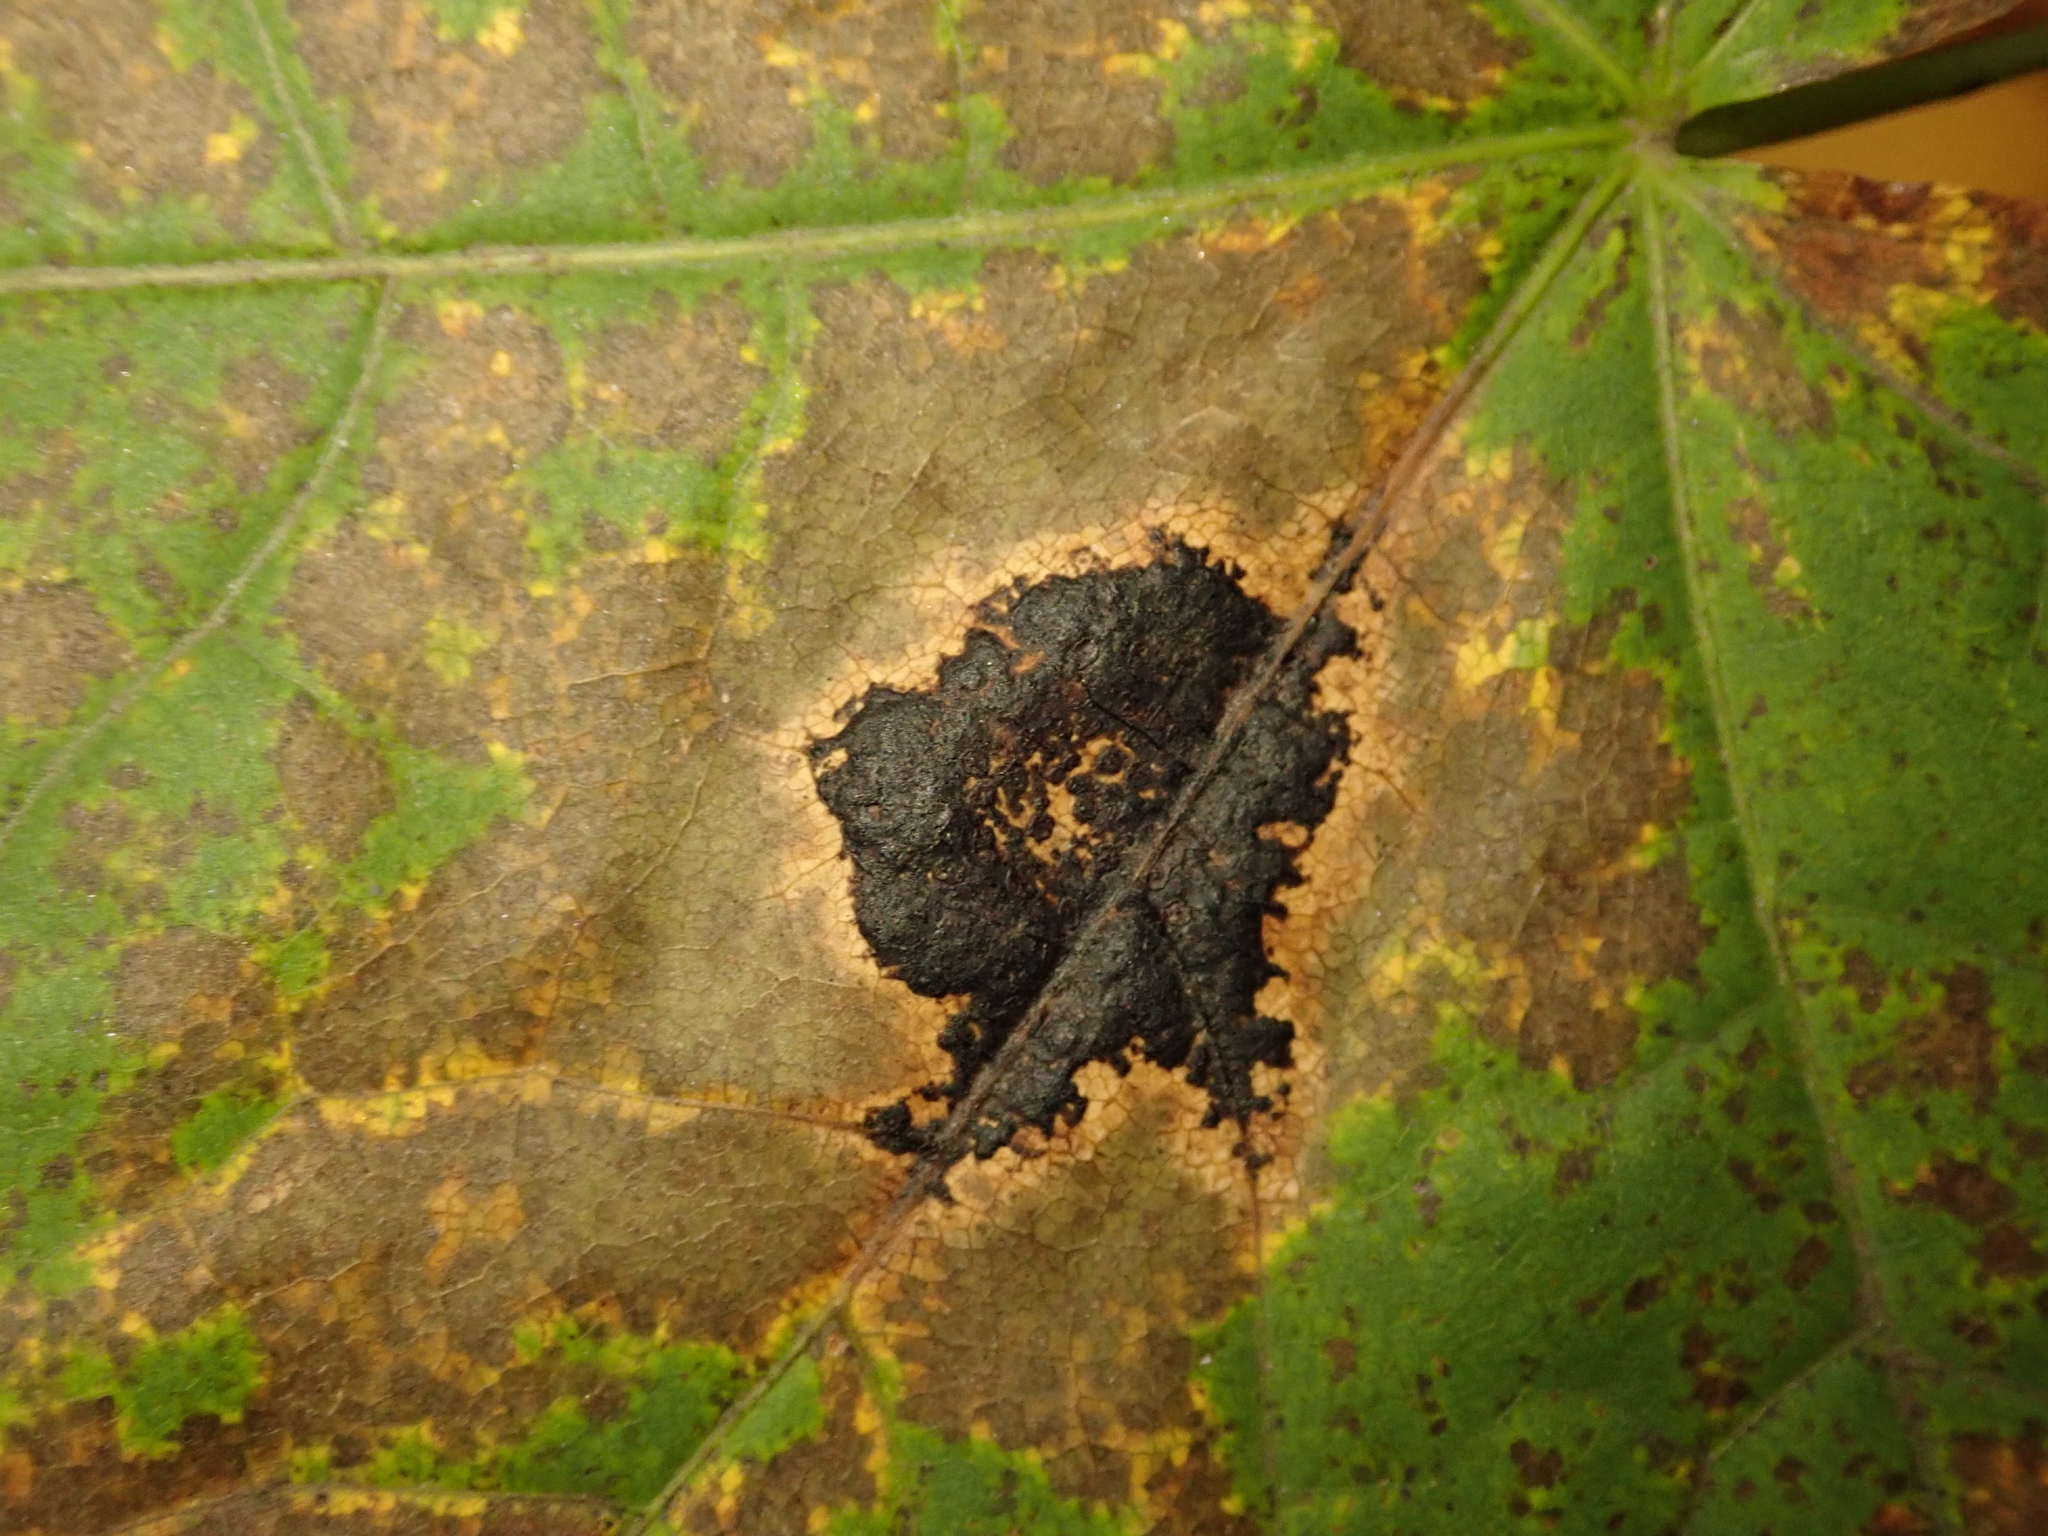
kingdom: Fungi
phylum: Ascomycota
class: Leotiomycetes
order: Rhytismatales
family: Rhytismataceae
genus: Rhytisma
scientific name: Rhytisma acerinum
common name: European tar spot
